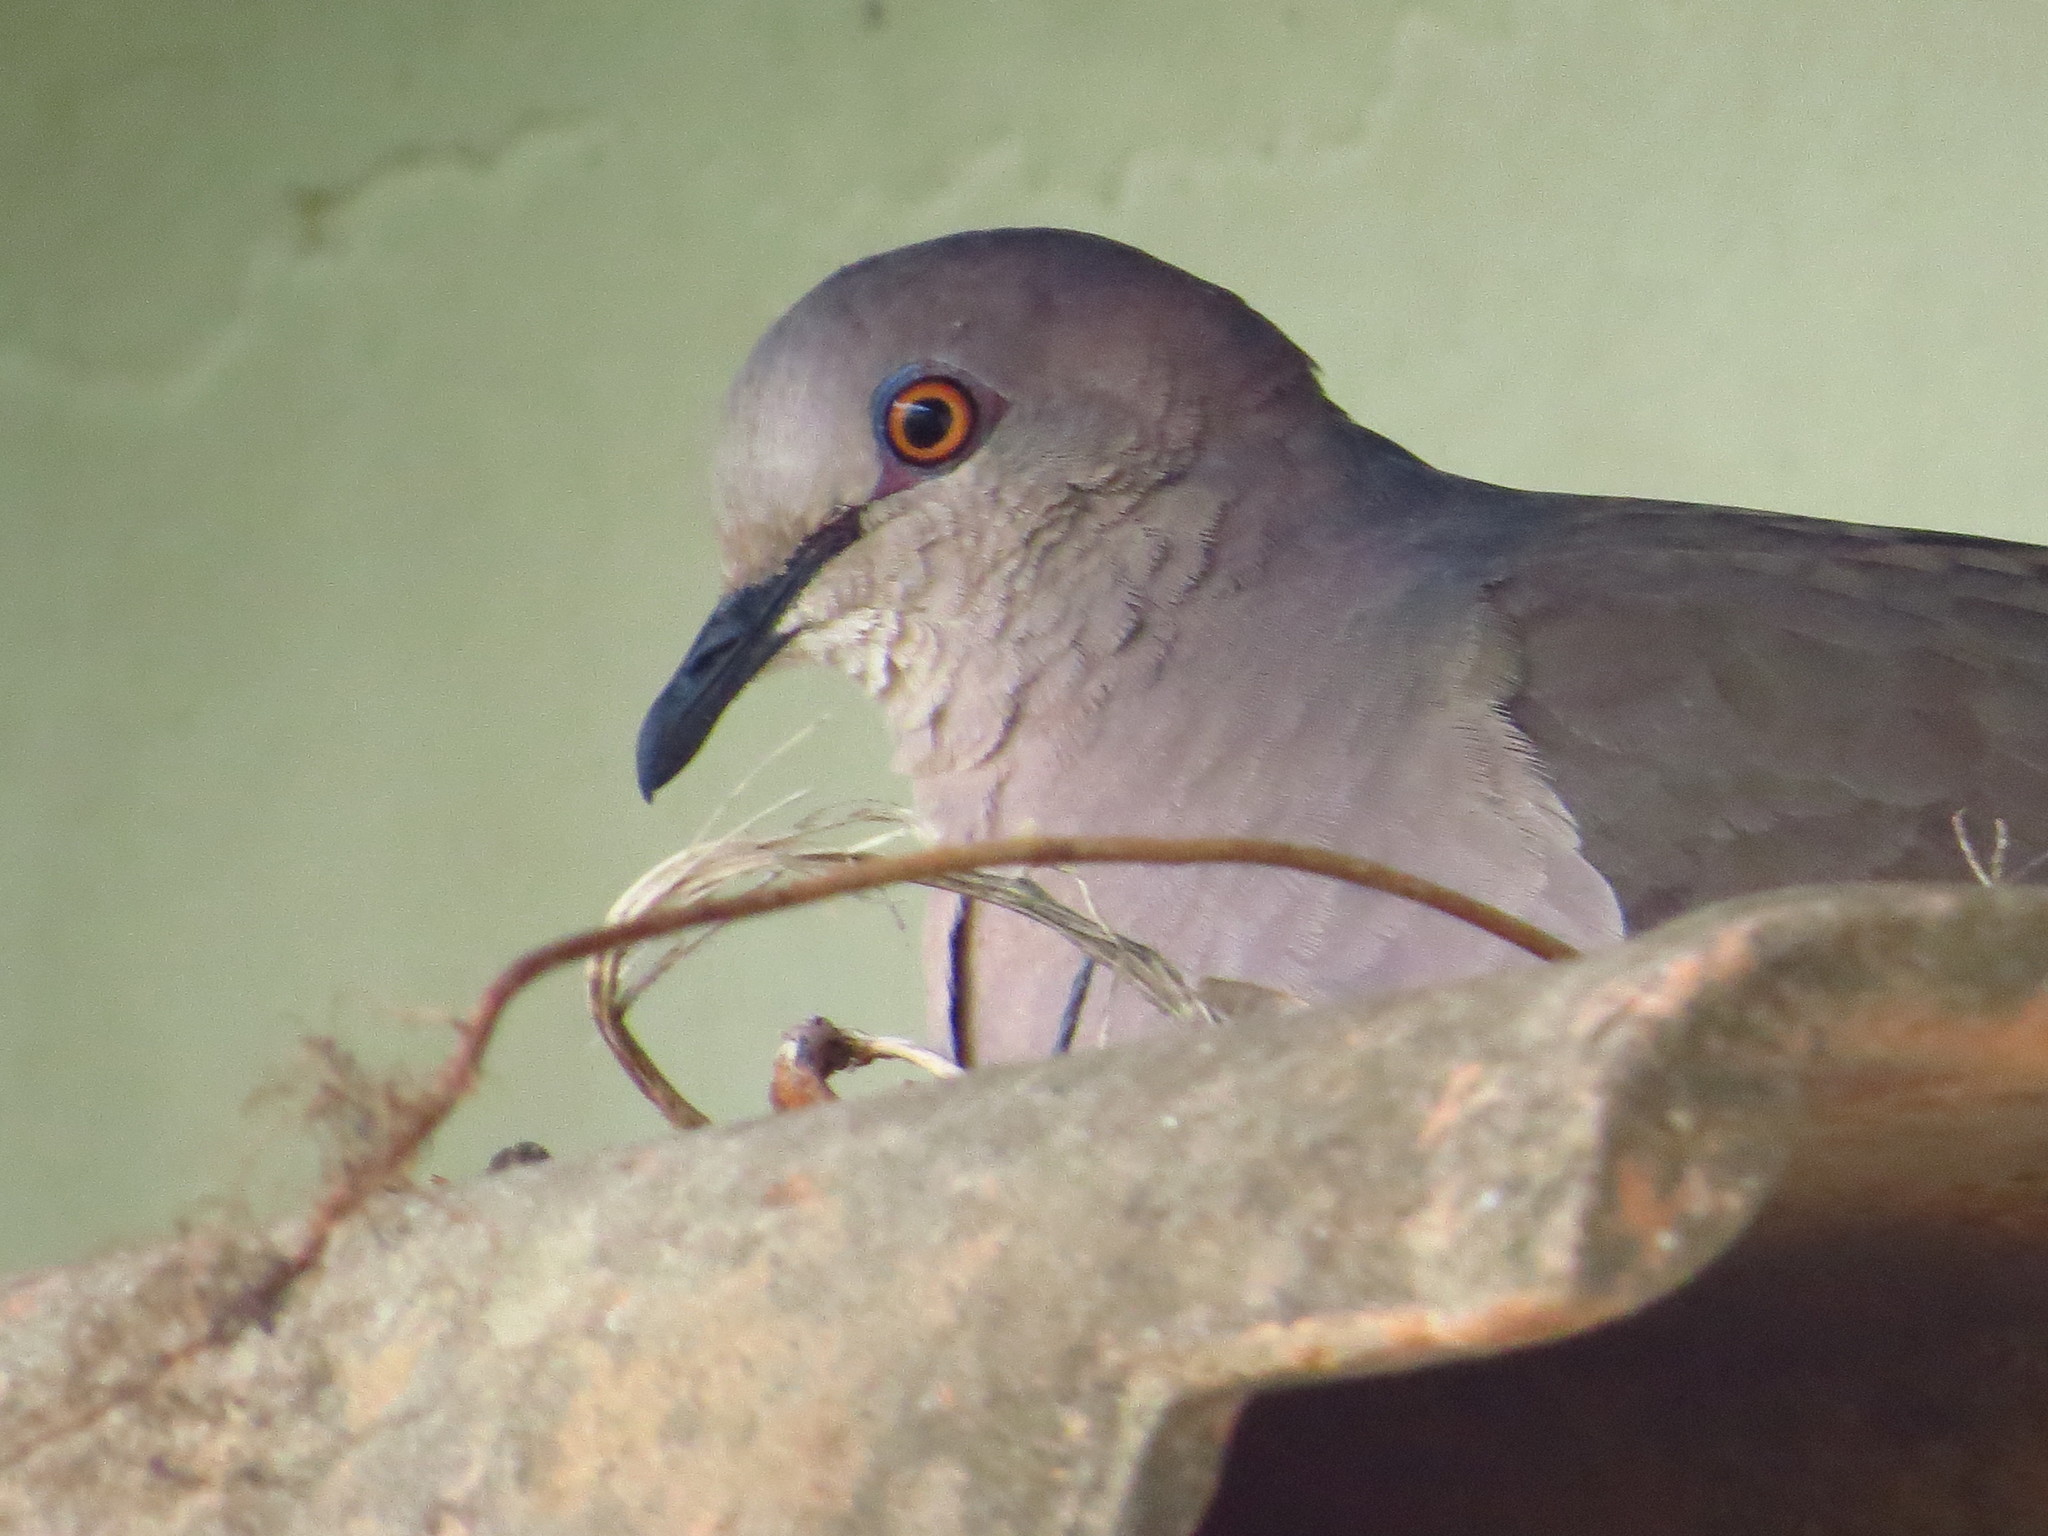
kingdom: Animalia
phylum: Chordata
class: Aves
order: Columbiformes
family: Columbidae
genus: Leptotila
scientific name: Leptotila verreauxi
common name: White-tipped dove
